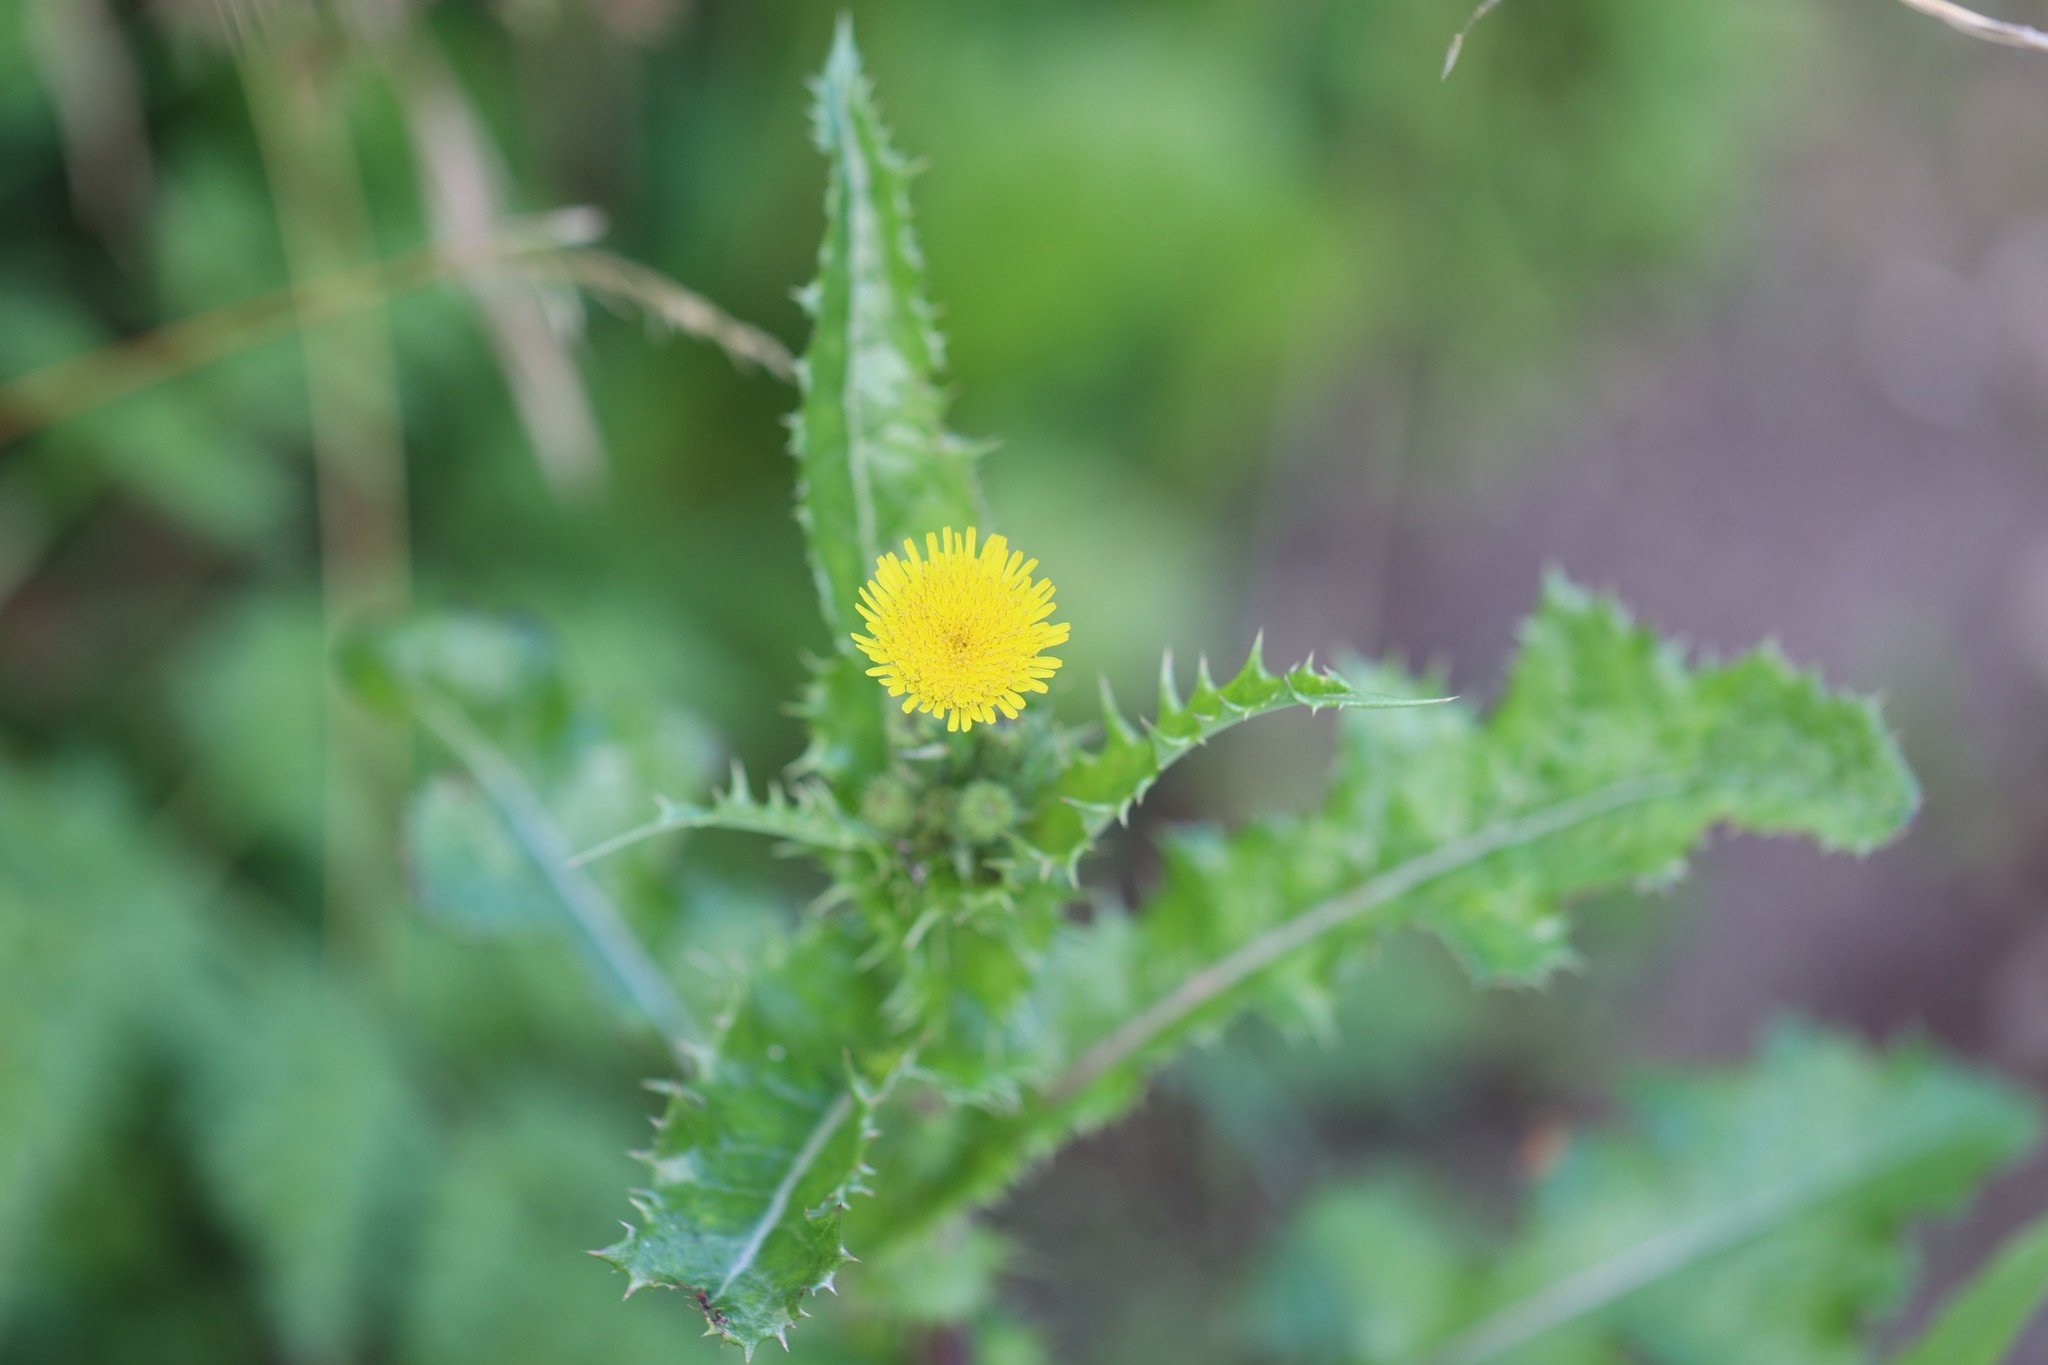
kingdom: Plantae
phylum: Tracheophyta
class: Magnoliopsida
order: Asterales
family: Asteraceae
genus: Sonchus
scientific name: Sonchus asper
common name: Prickly sow-thistle
